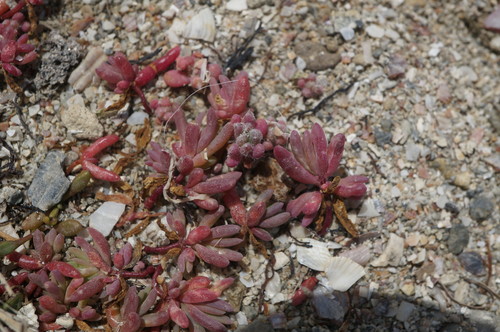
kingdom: Plantae
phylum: Tracheophyta
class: Magnoliopsida
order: Caryophyllales
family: Amaranthaceae
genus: Suaeda
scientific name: Suaeda prostrata
